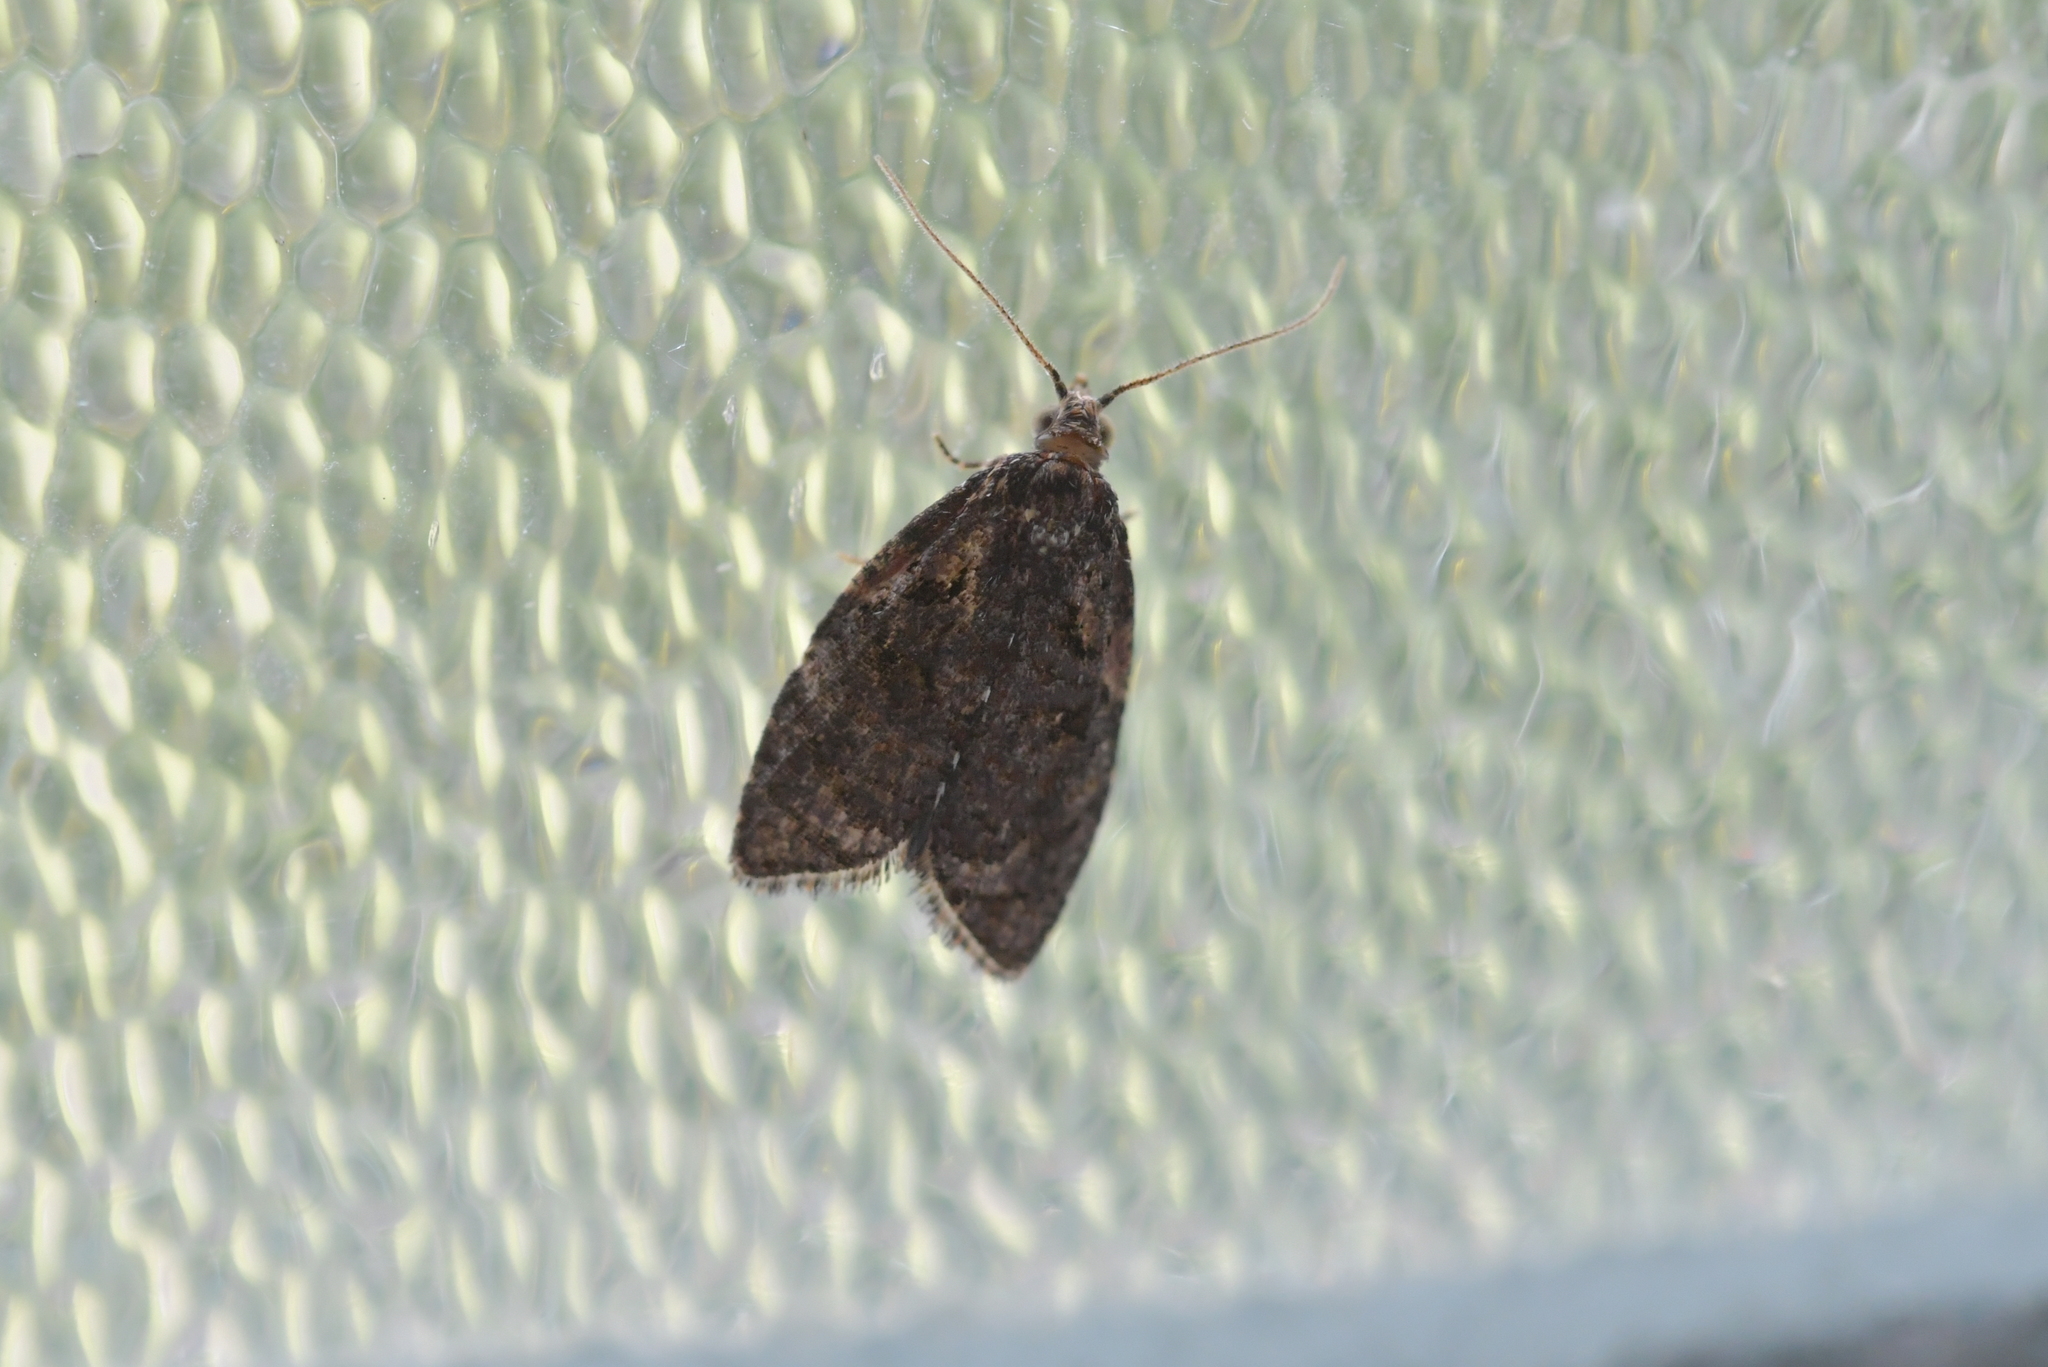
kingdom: Animalia
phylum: Arthropoda
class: Insecta
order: Lepidoptera
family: Tortricidae
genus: Capua
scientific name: Capua intractana
